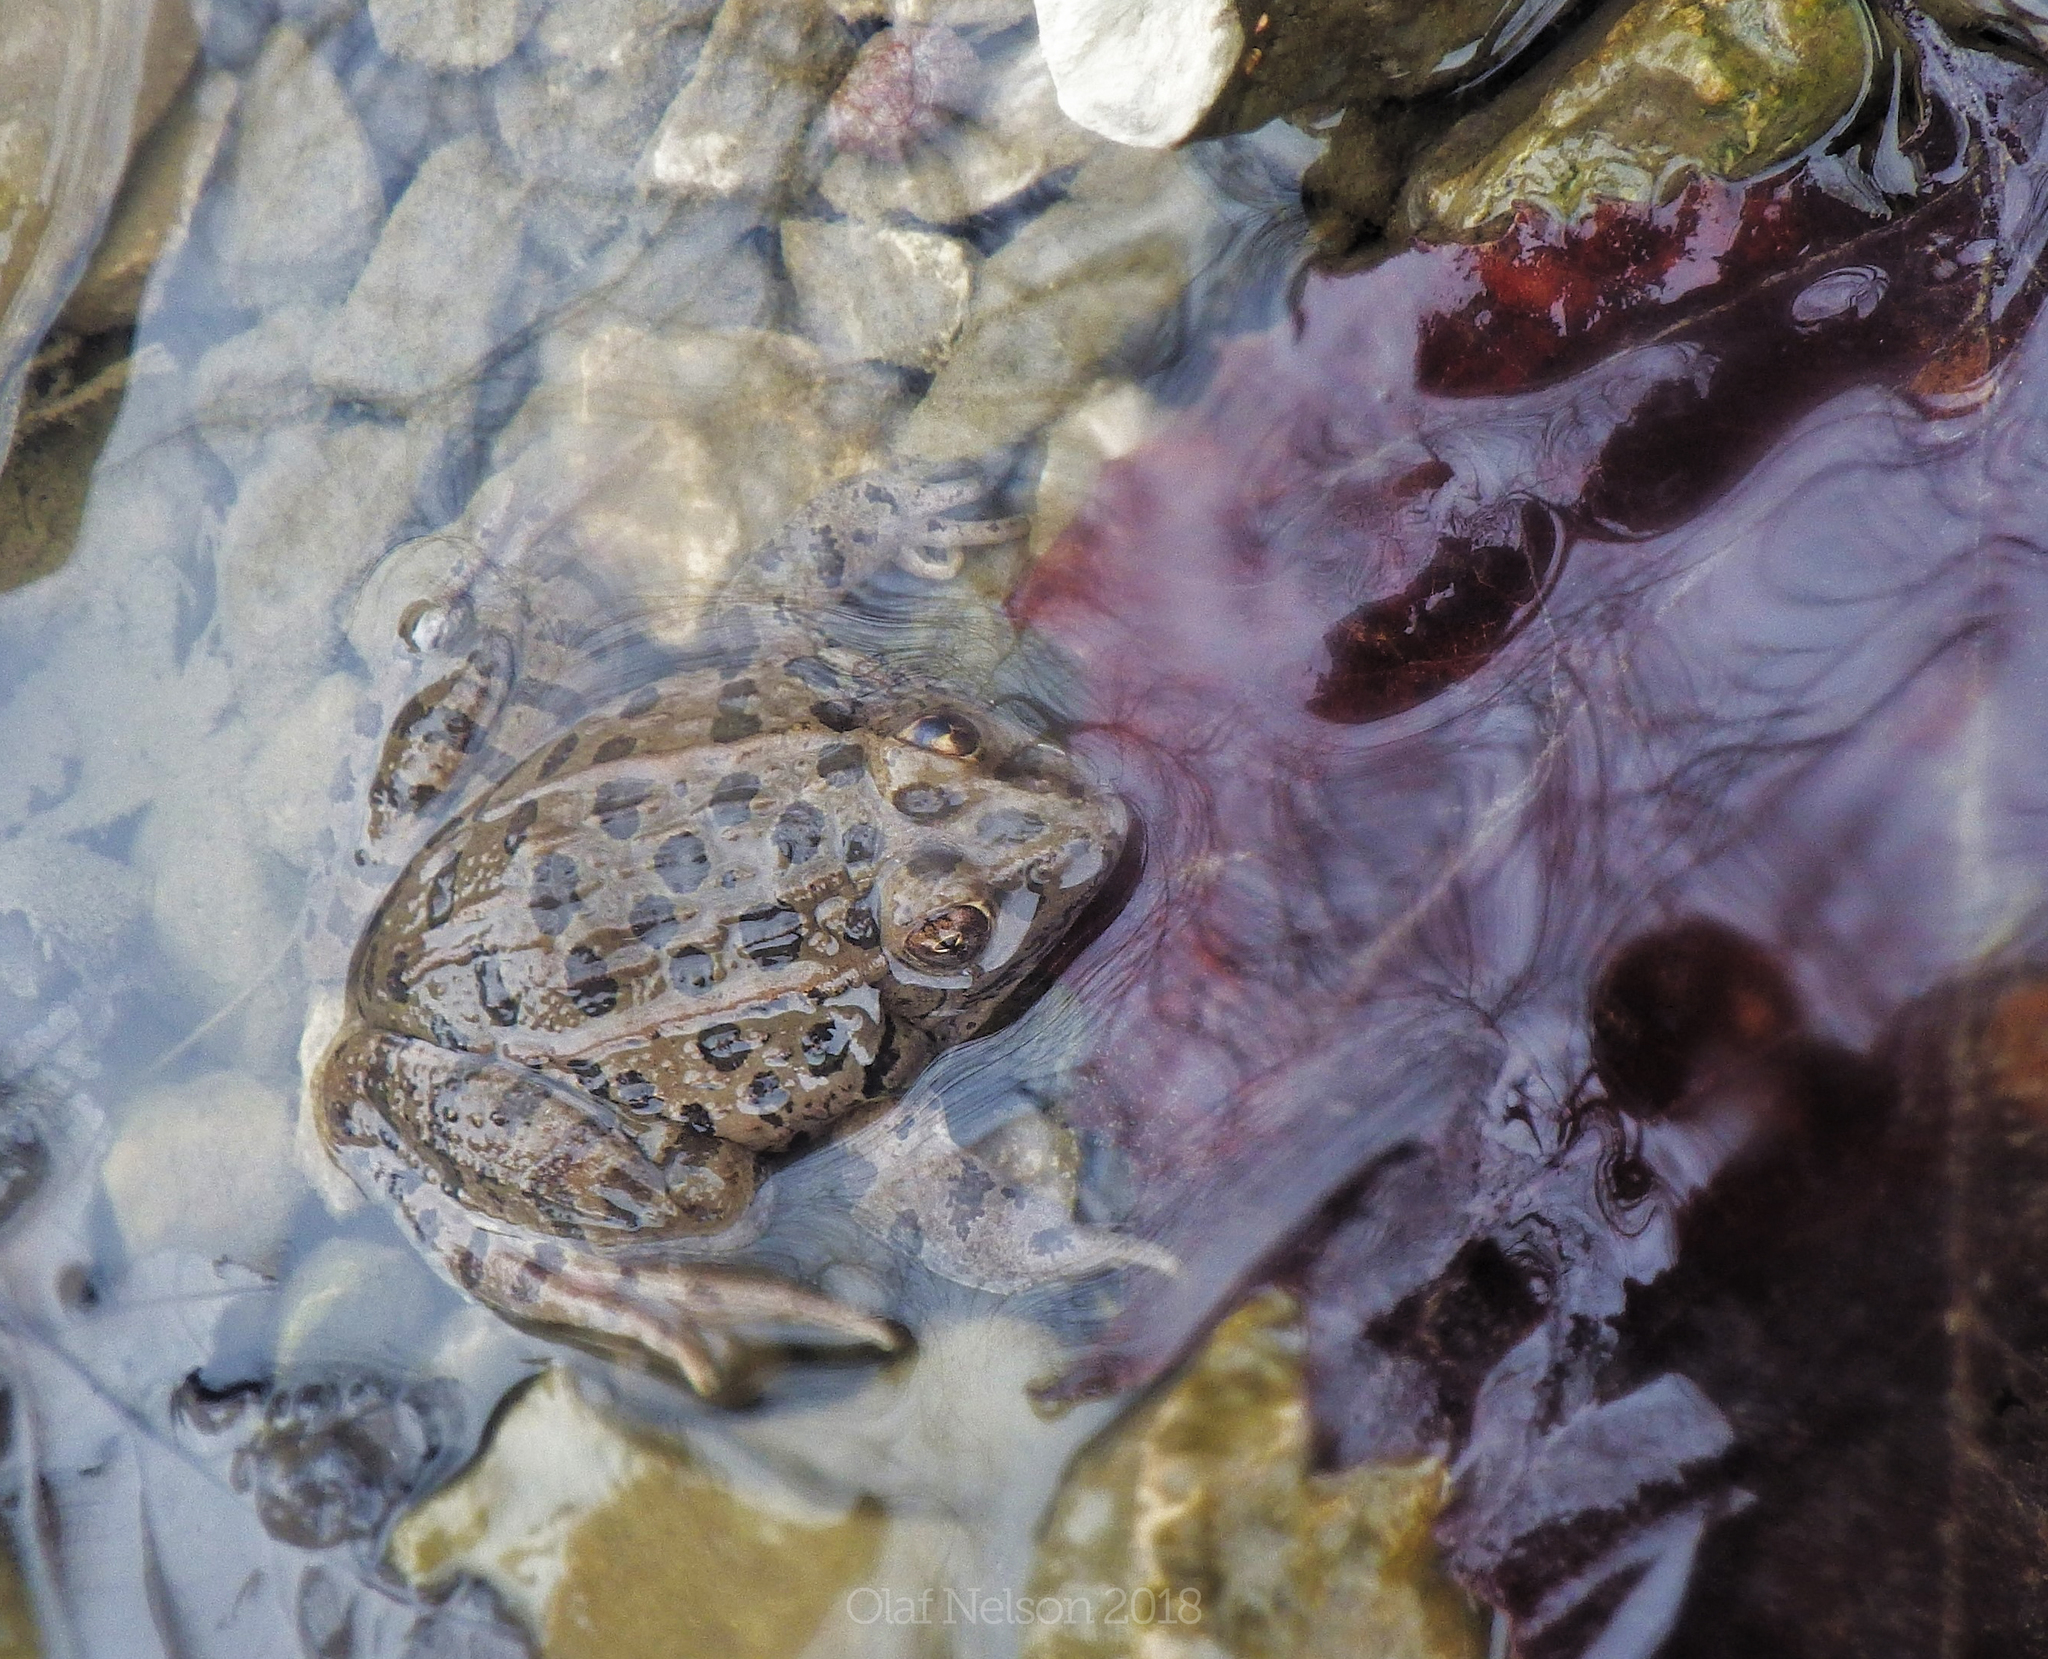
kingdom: Animalia
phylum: Chordata
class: Amphibia
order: Anura
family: Ranidae
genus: Lithobates
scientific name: Lithobates blairi
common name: Plains leopard frog
